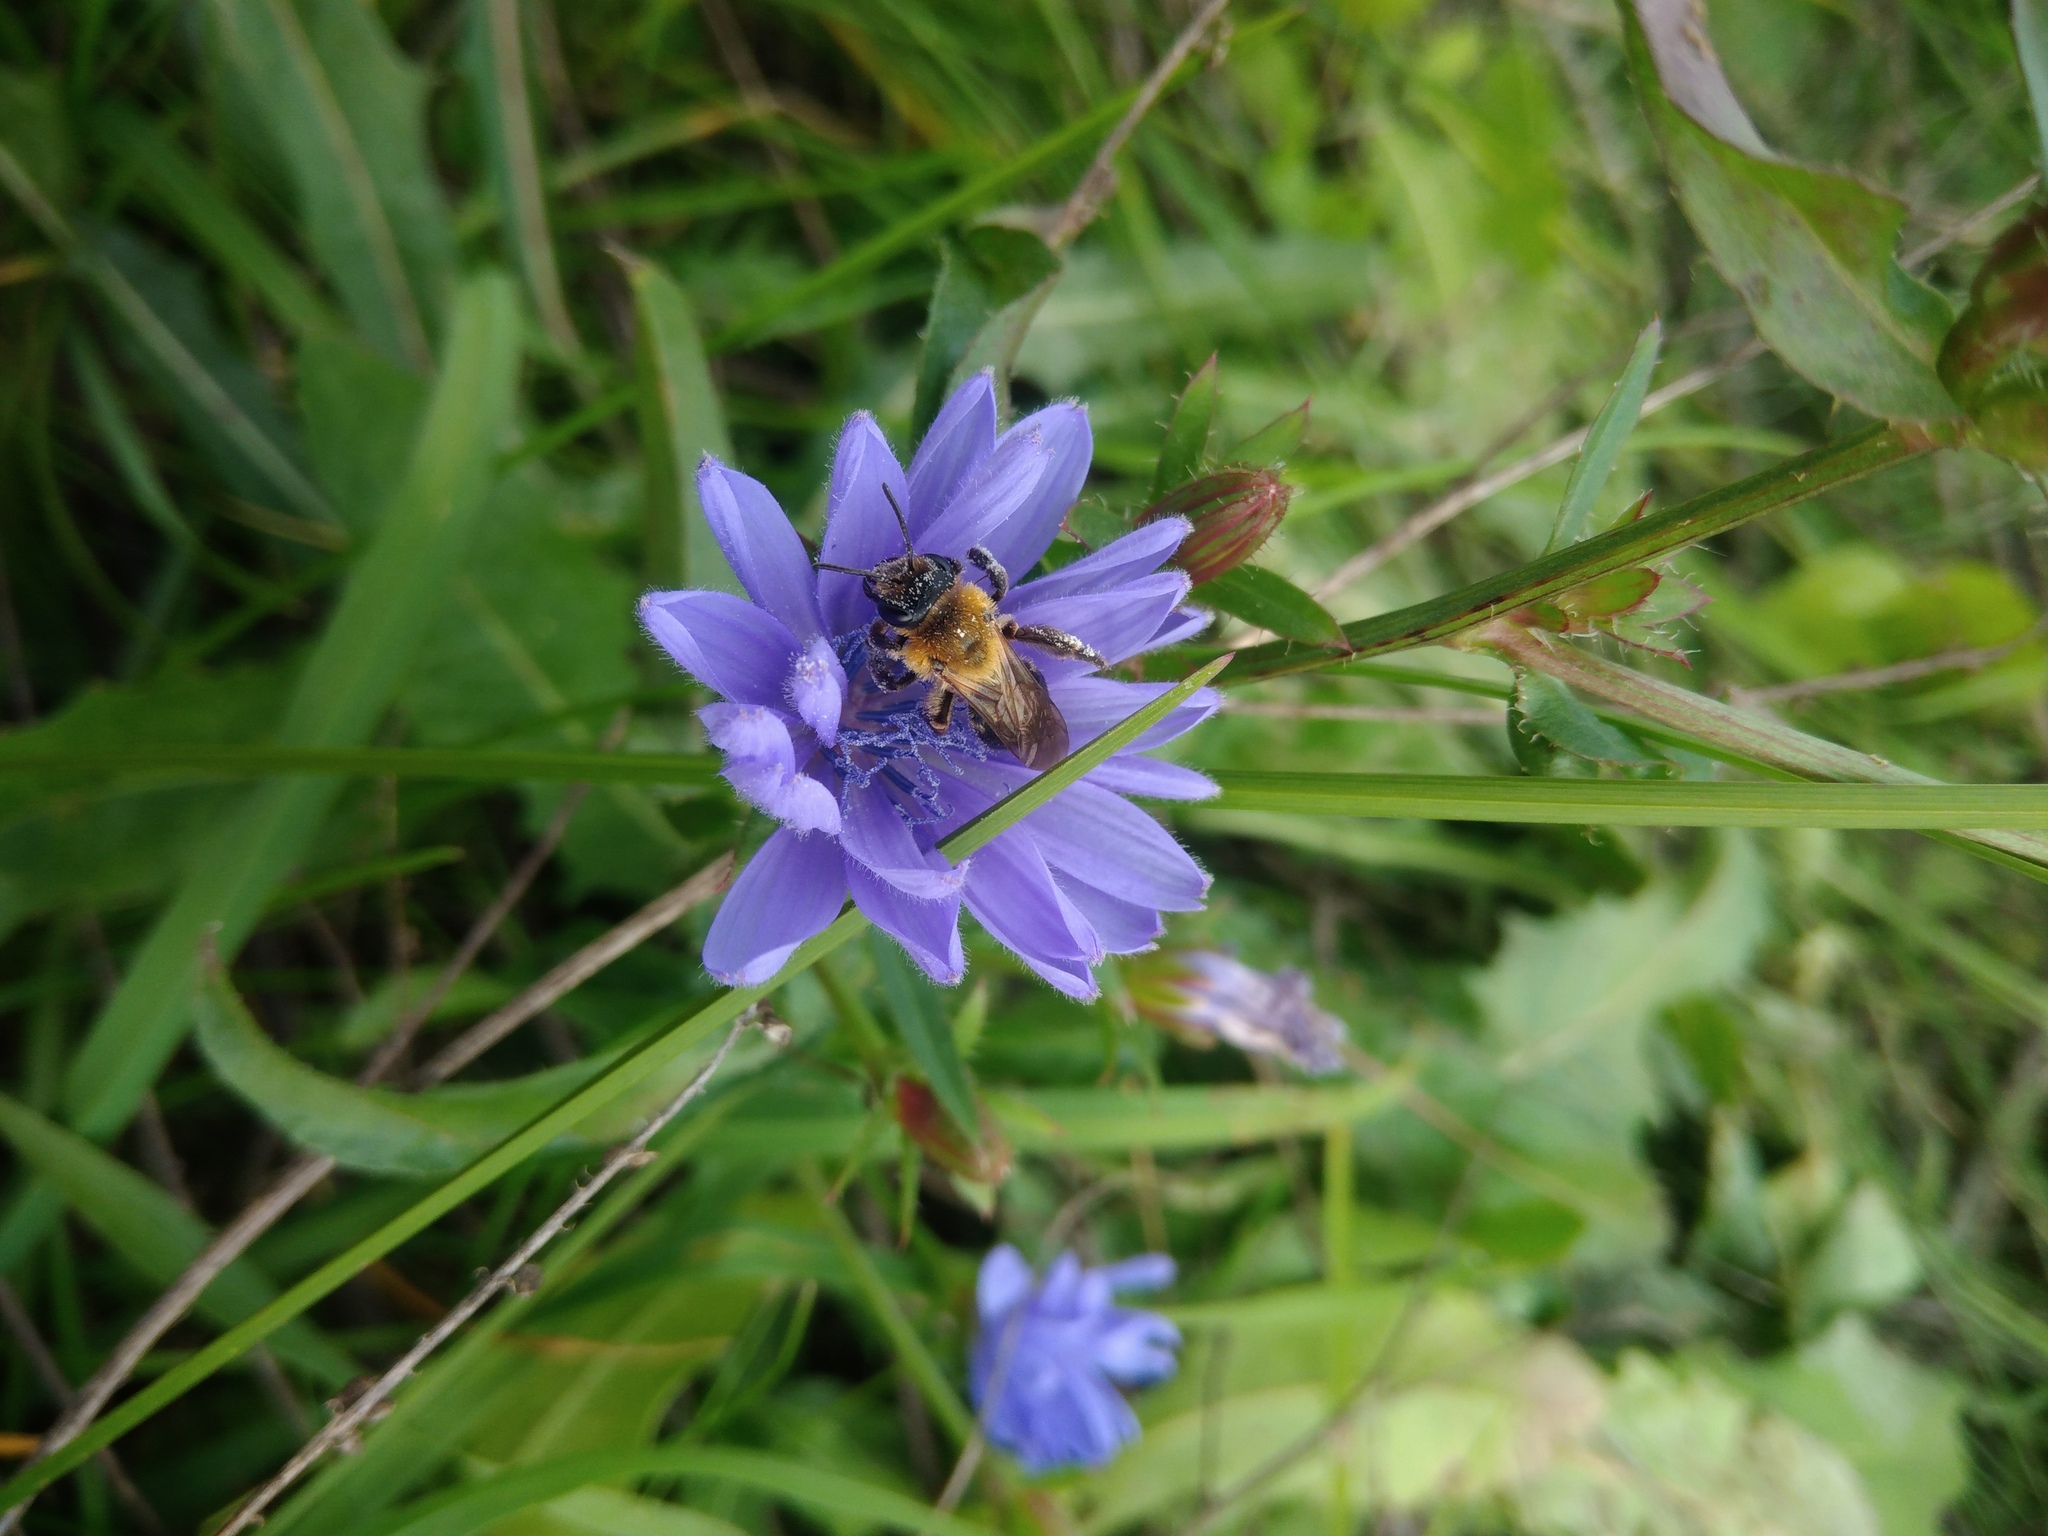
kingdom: Plantae
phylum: Tracheophyta
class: Magnoliopsida
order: Asterales
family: Asteraceae
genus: Cichorium
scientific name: Cichorium intybus
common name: Chicory
